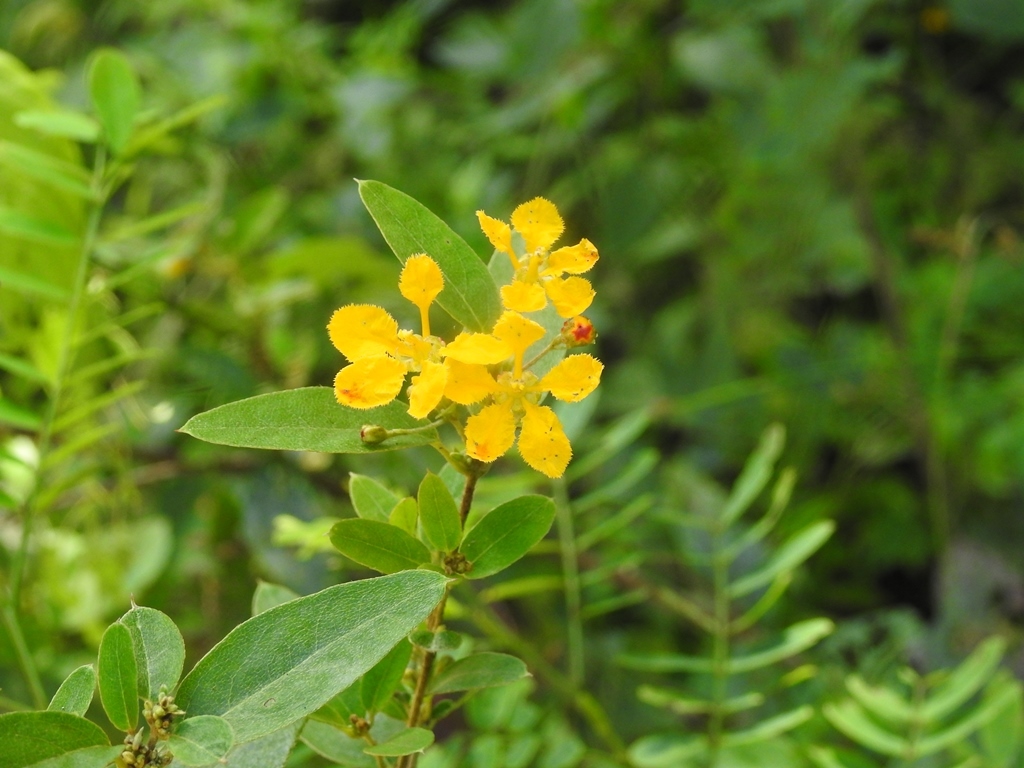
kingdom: Plantae
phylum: Tracheophyta
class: Magnoliopsida
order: Malpighiales
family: Malpighiaceae
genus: Gaudichaudia
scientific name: Gaudichaudia cynanchoides
